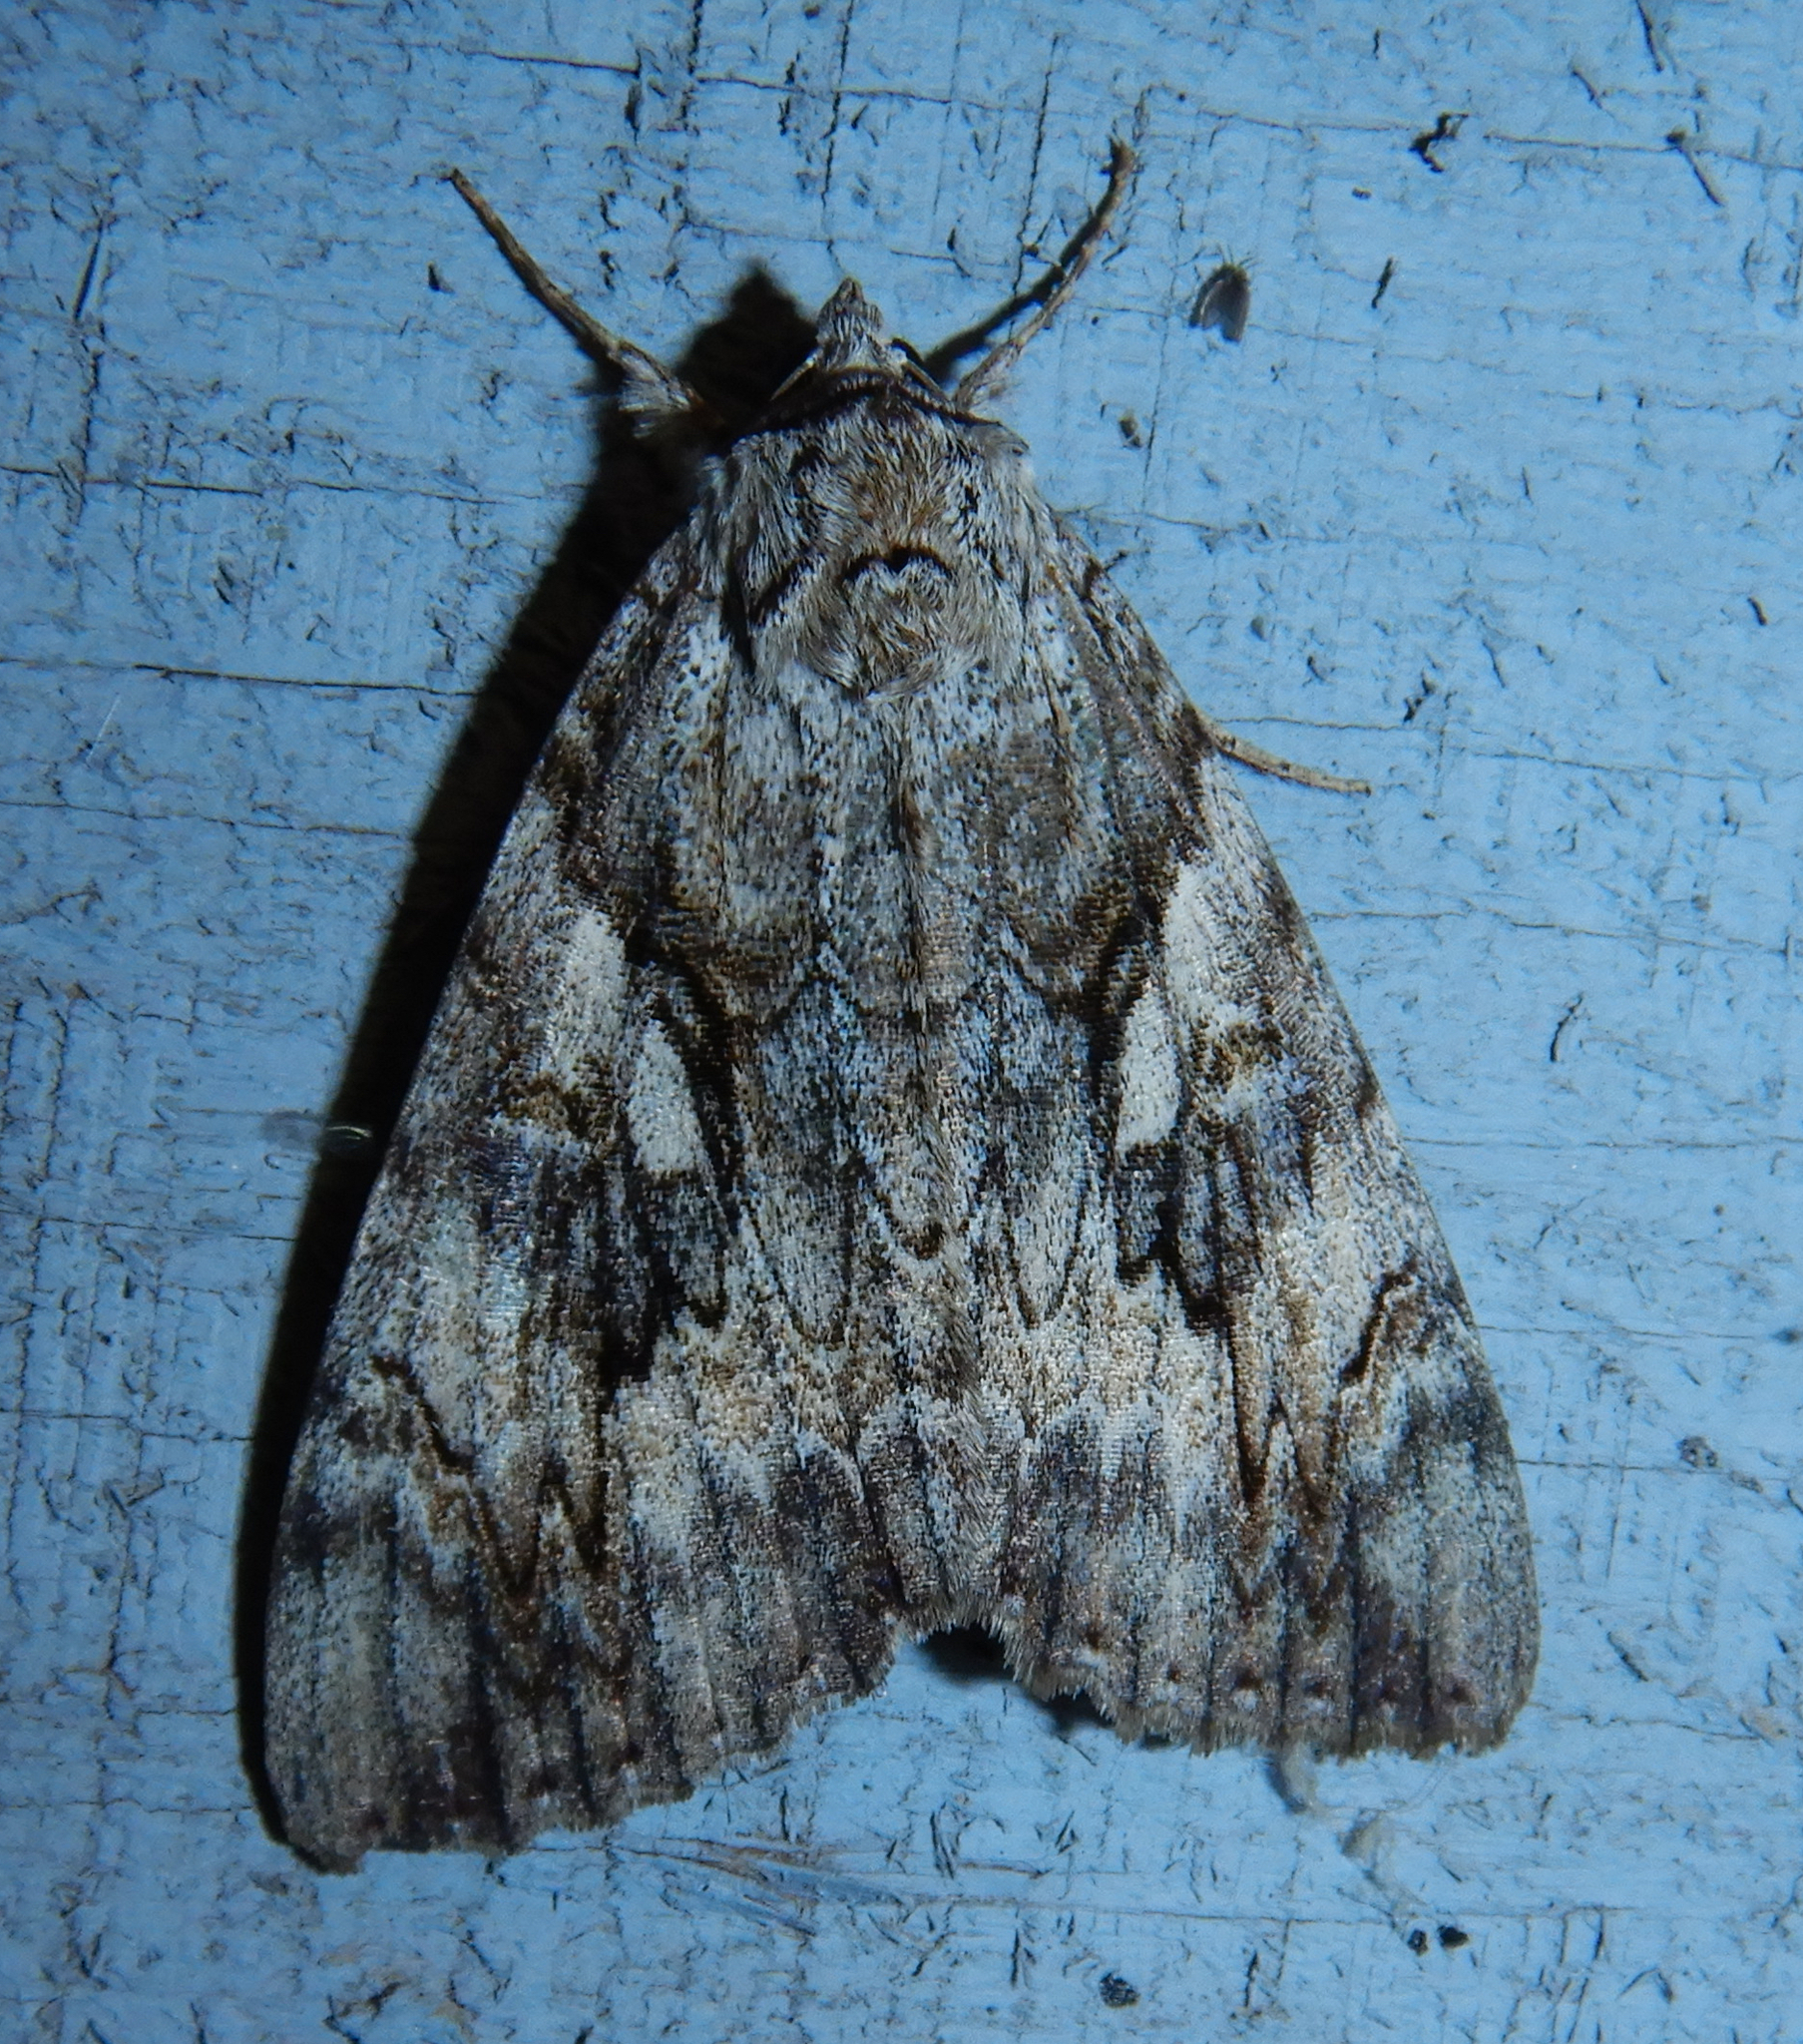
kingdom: Animalia
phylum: Arthropoda
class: Insecta
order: Lepidoptera
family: Erebidae
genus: Catocala
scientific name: Catocala cerogama
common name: Yellow banded underwing
